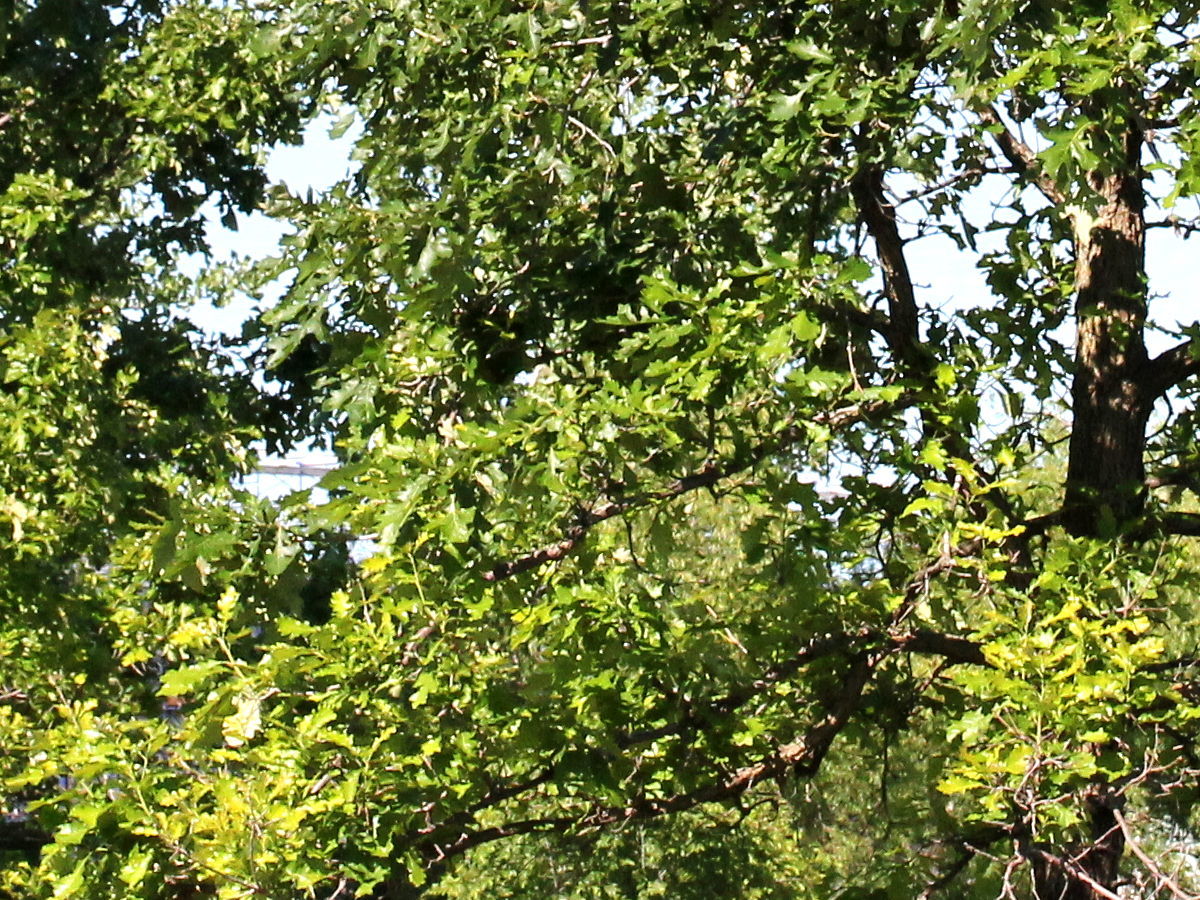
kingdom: Plantae
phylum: Tracheophyta
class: Magnoliopsida
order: Fagales
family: Fagaceae
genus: Quercus
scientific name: Quercus macrocarpa
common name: Bur oak
